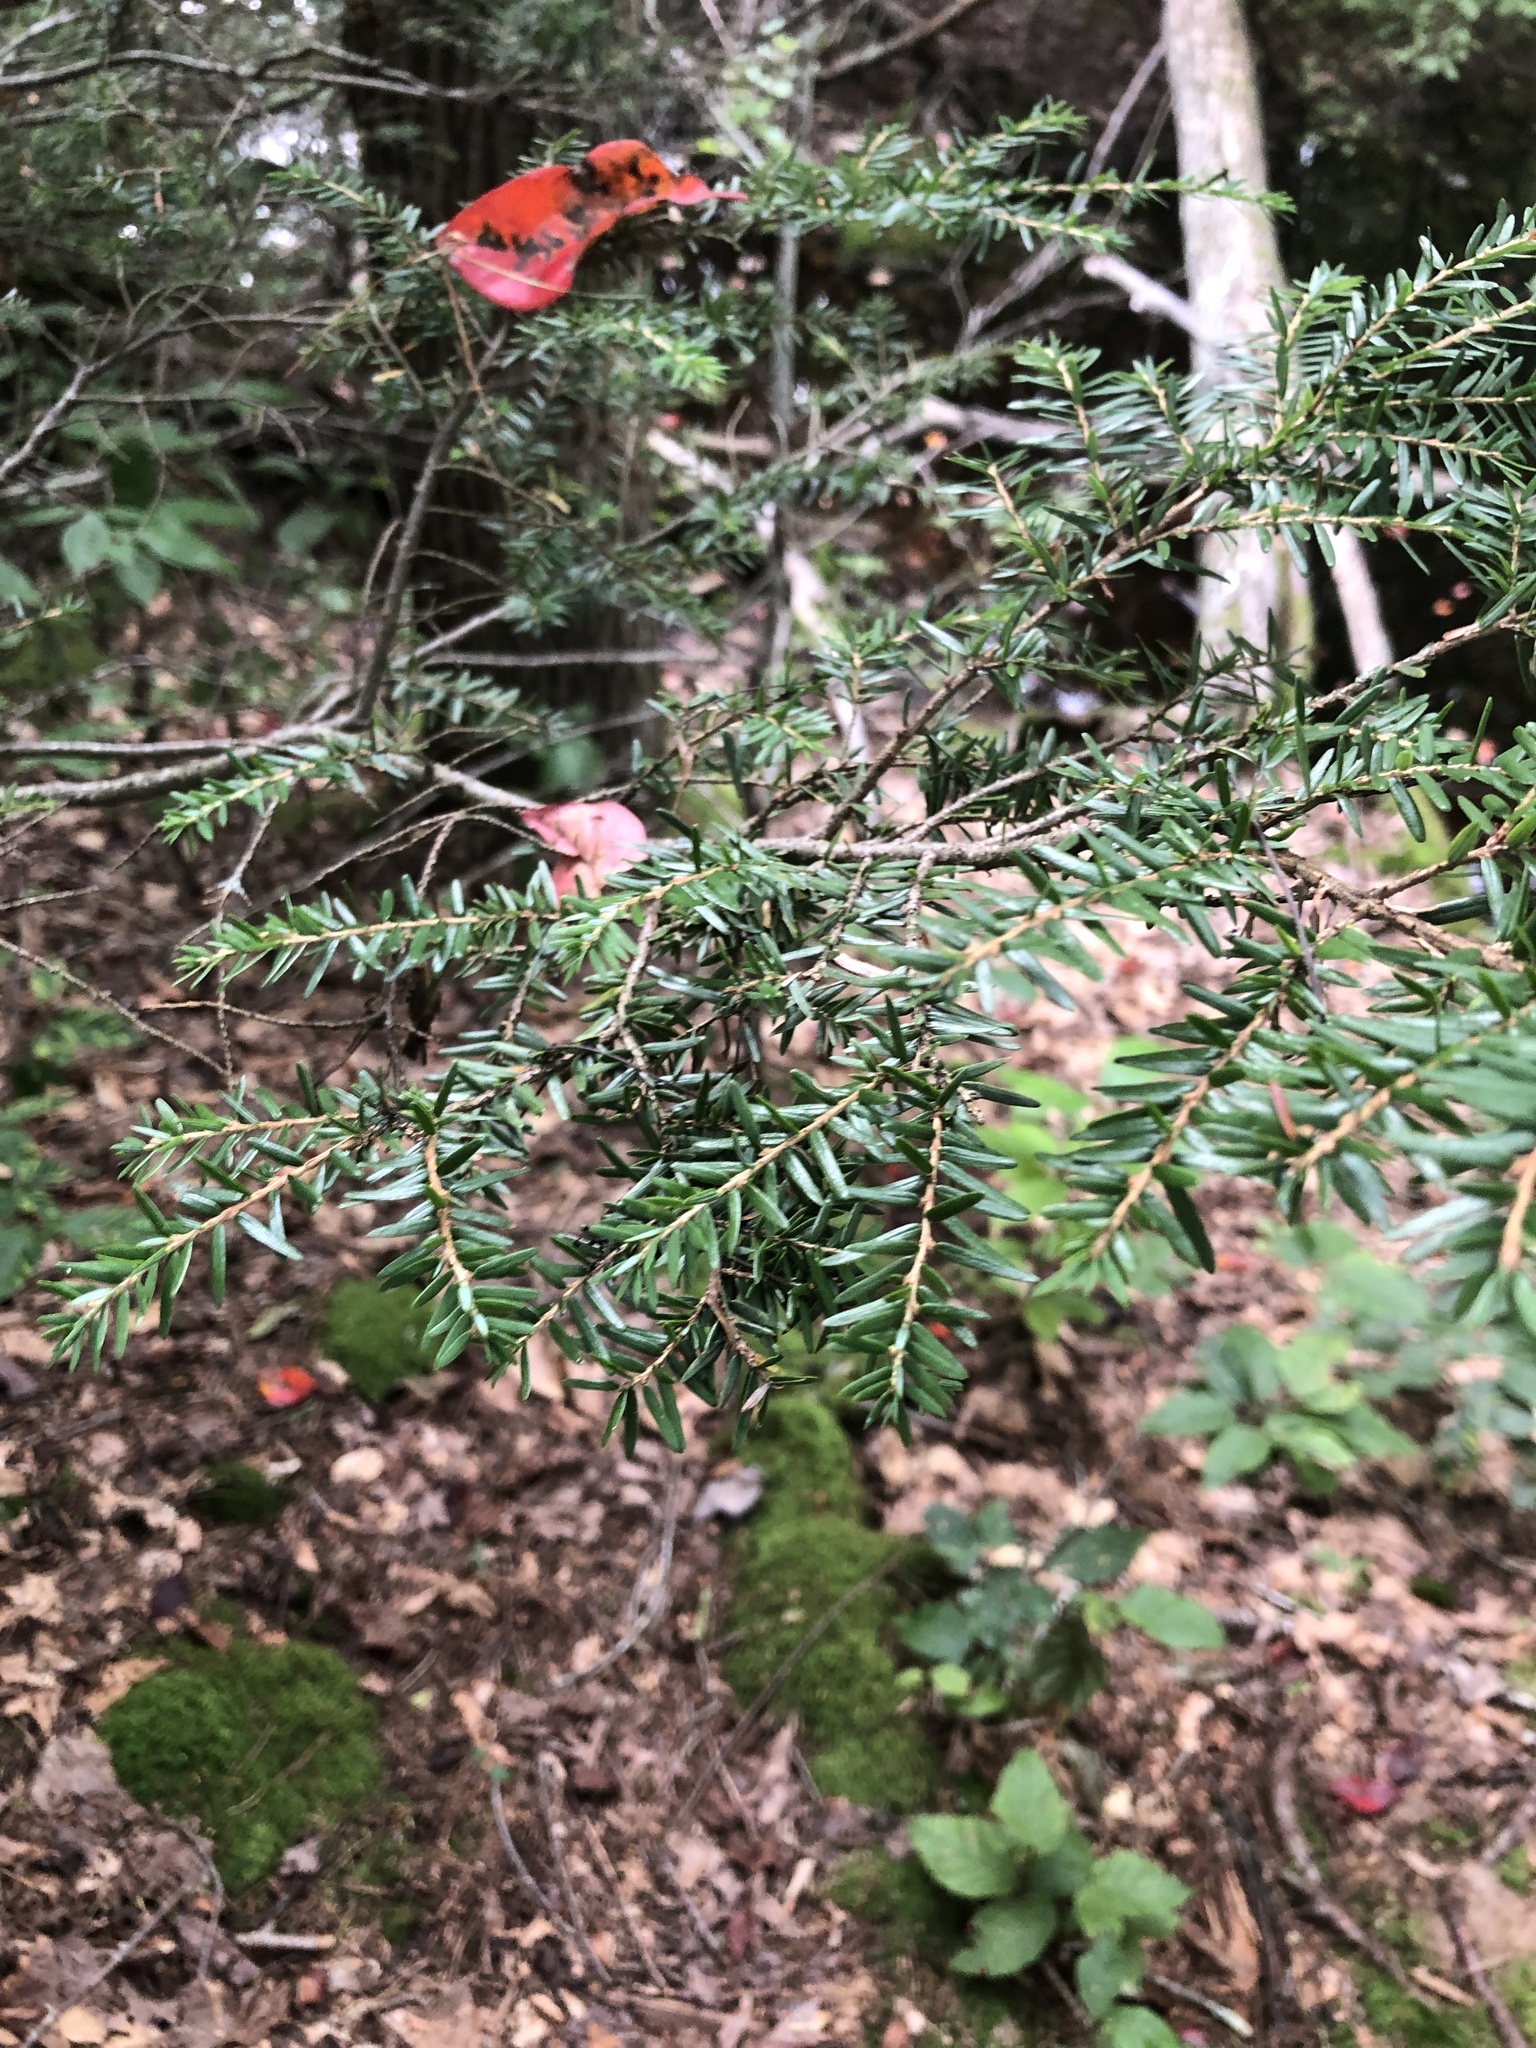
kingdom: Plantae
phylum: Tracheophyta
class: Pinopsida
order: Pinales
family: Pinaceae
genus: Tsuga
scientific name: Tsuga canadensis
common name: Eastern hemlock
